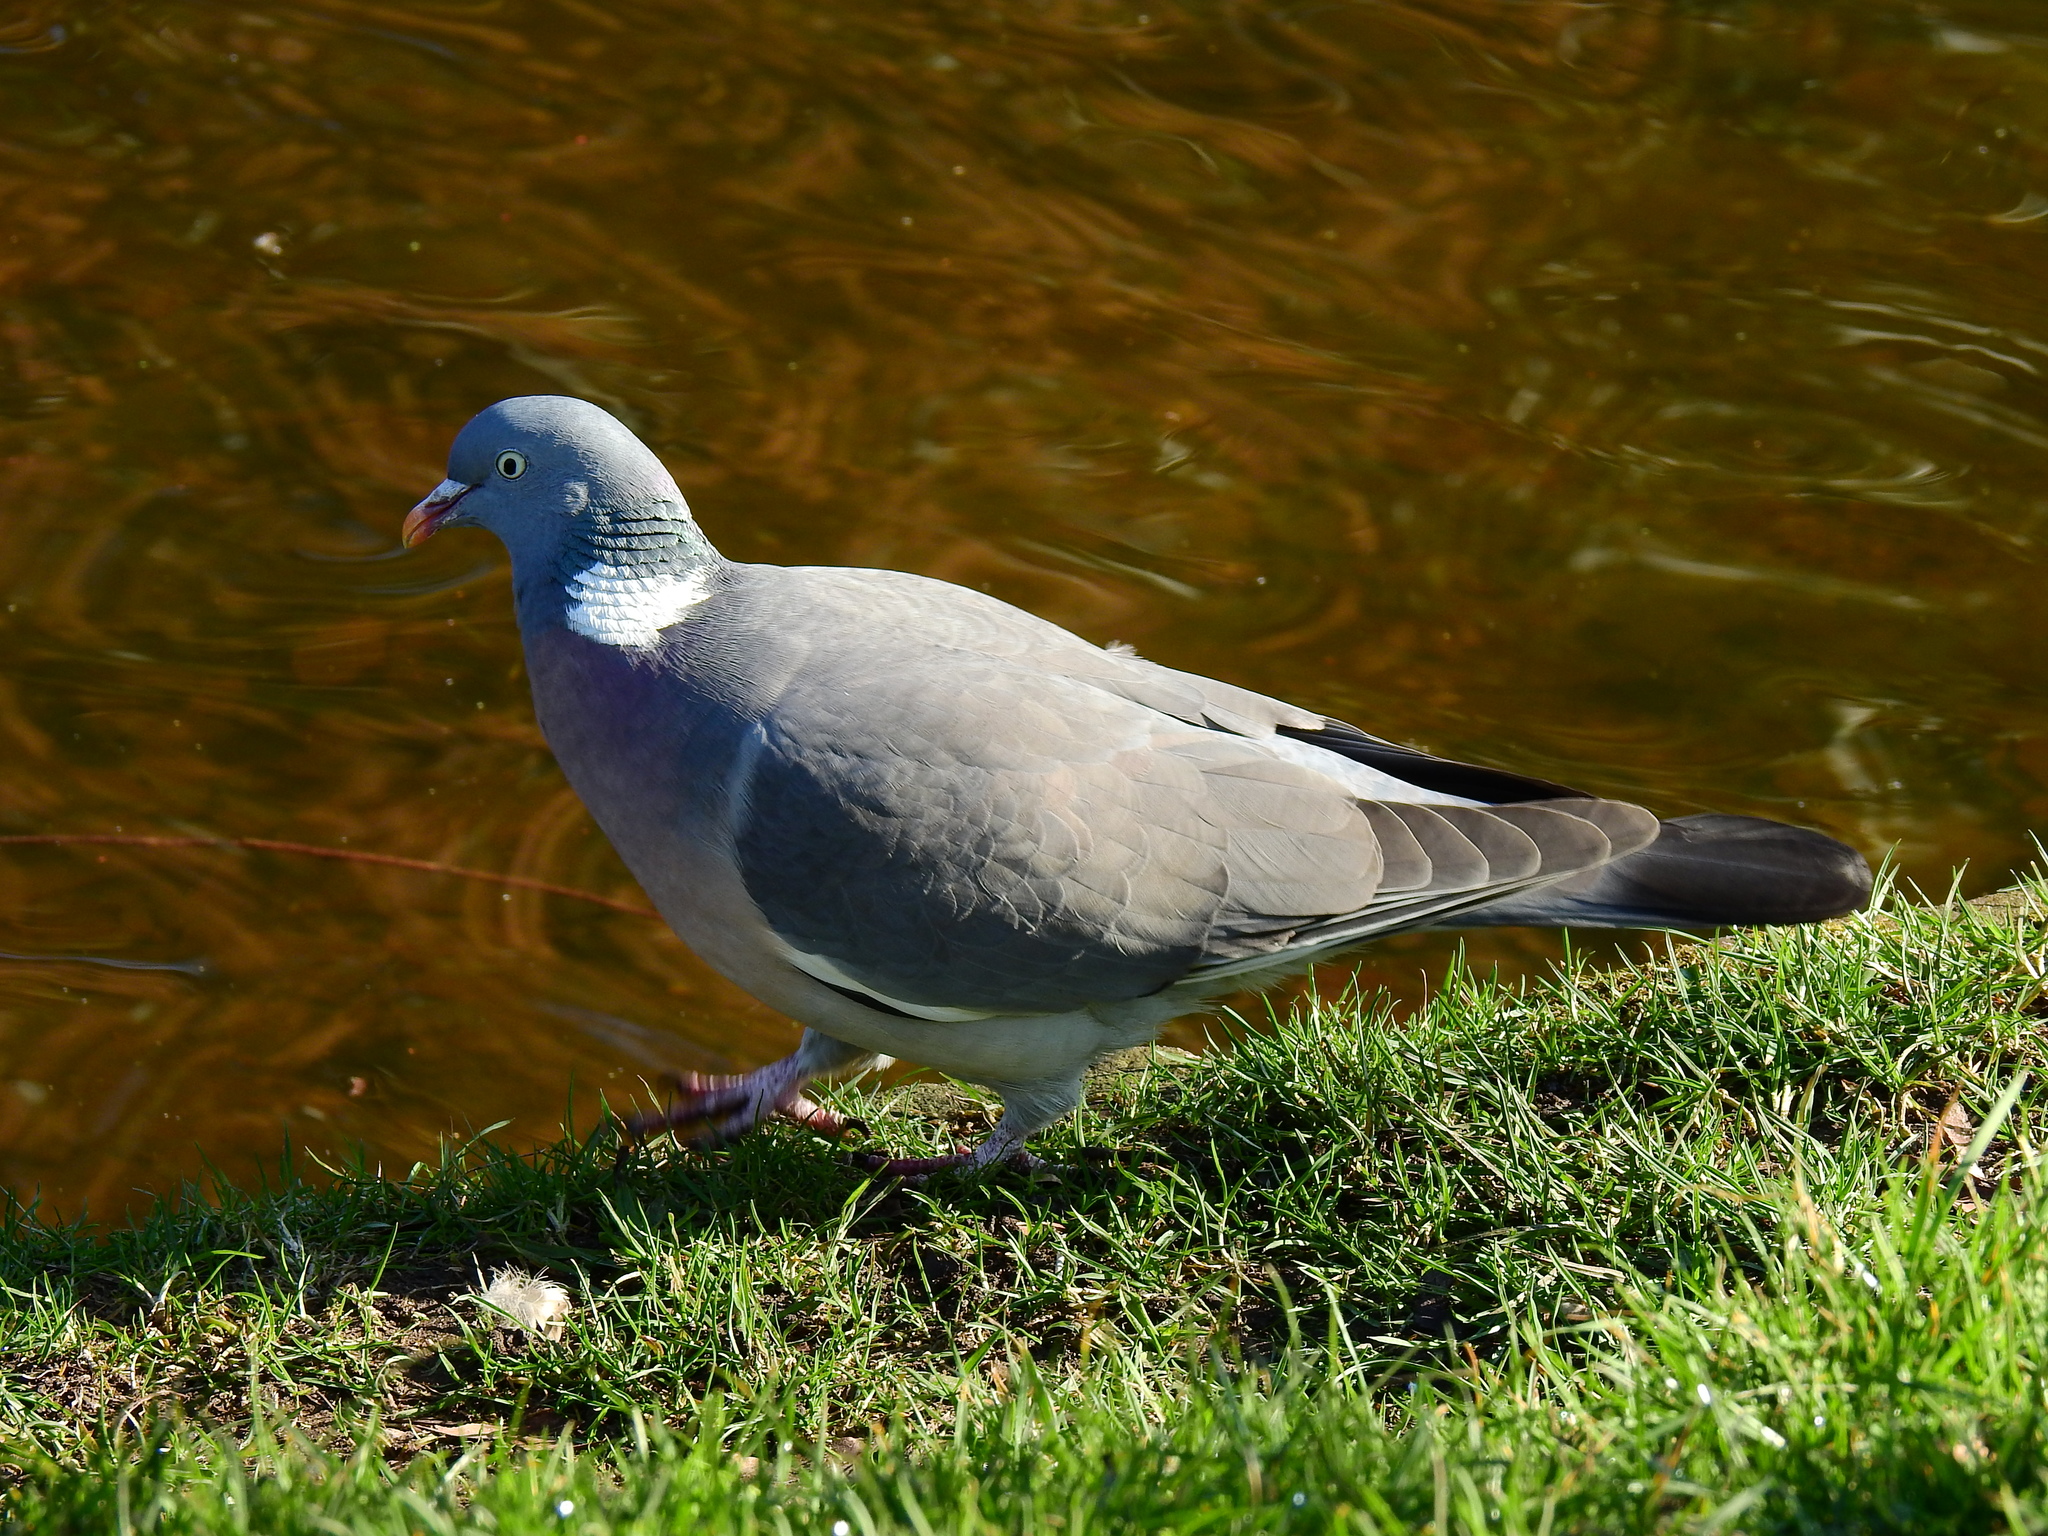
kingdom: Animalia
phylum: Chordata
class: Aves
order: Columbiformes
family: Columbidae
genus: Columba
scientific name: Columba palumbus
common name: Common wood pigeon
